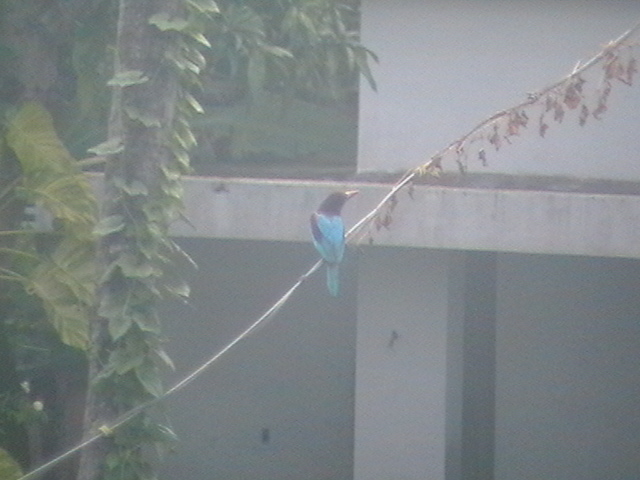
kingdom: Animalia
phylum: Chordata
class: Aves
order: Coraciiformes
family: Alcedinidae
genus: Halcyon
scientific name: Halcyon smyrnensis
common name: White-throated kingfisher
